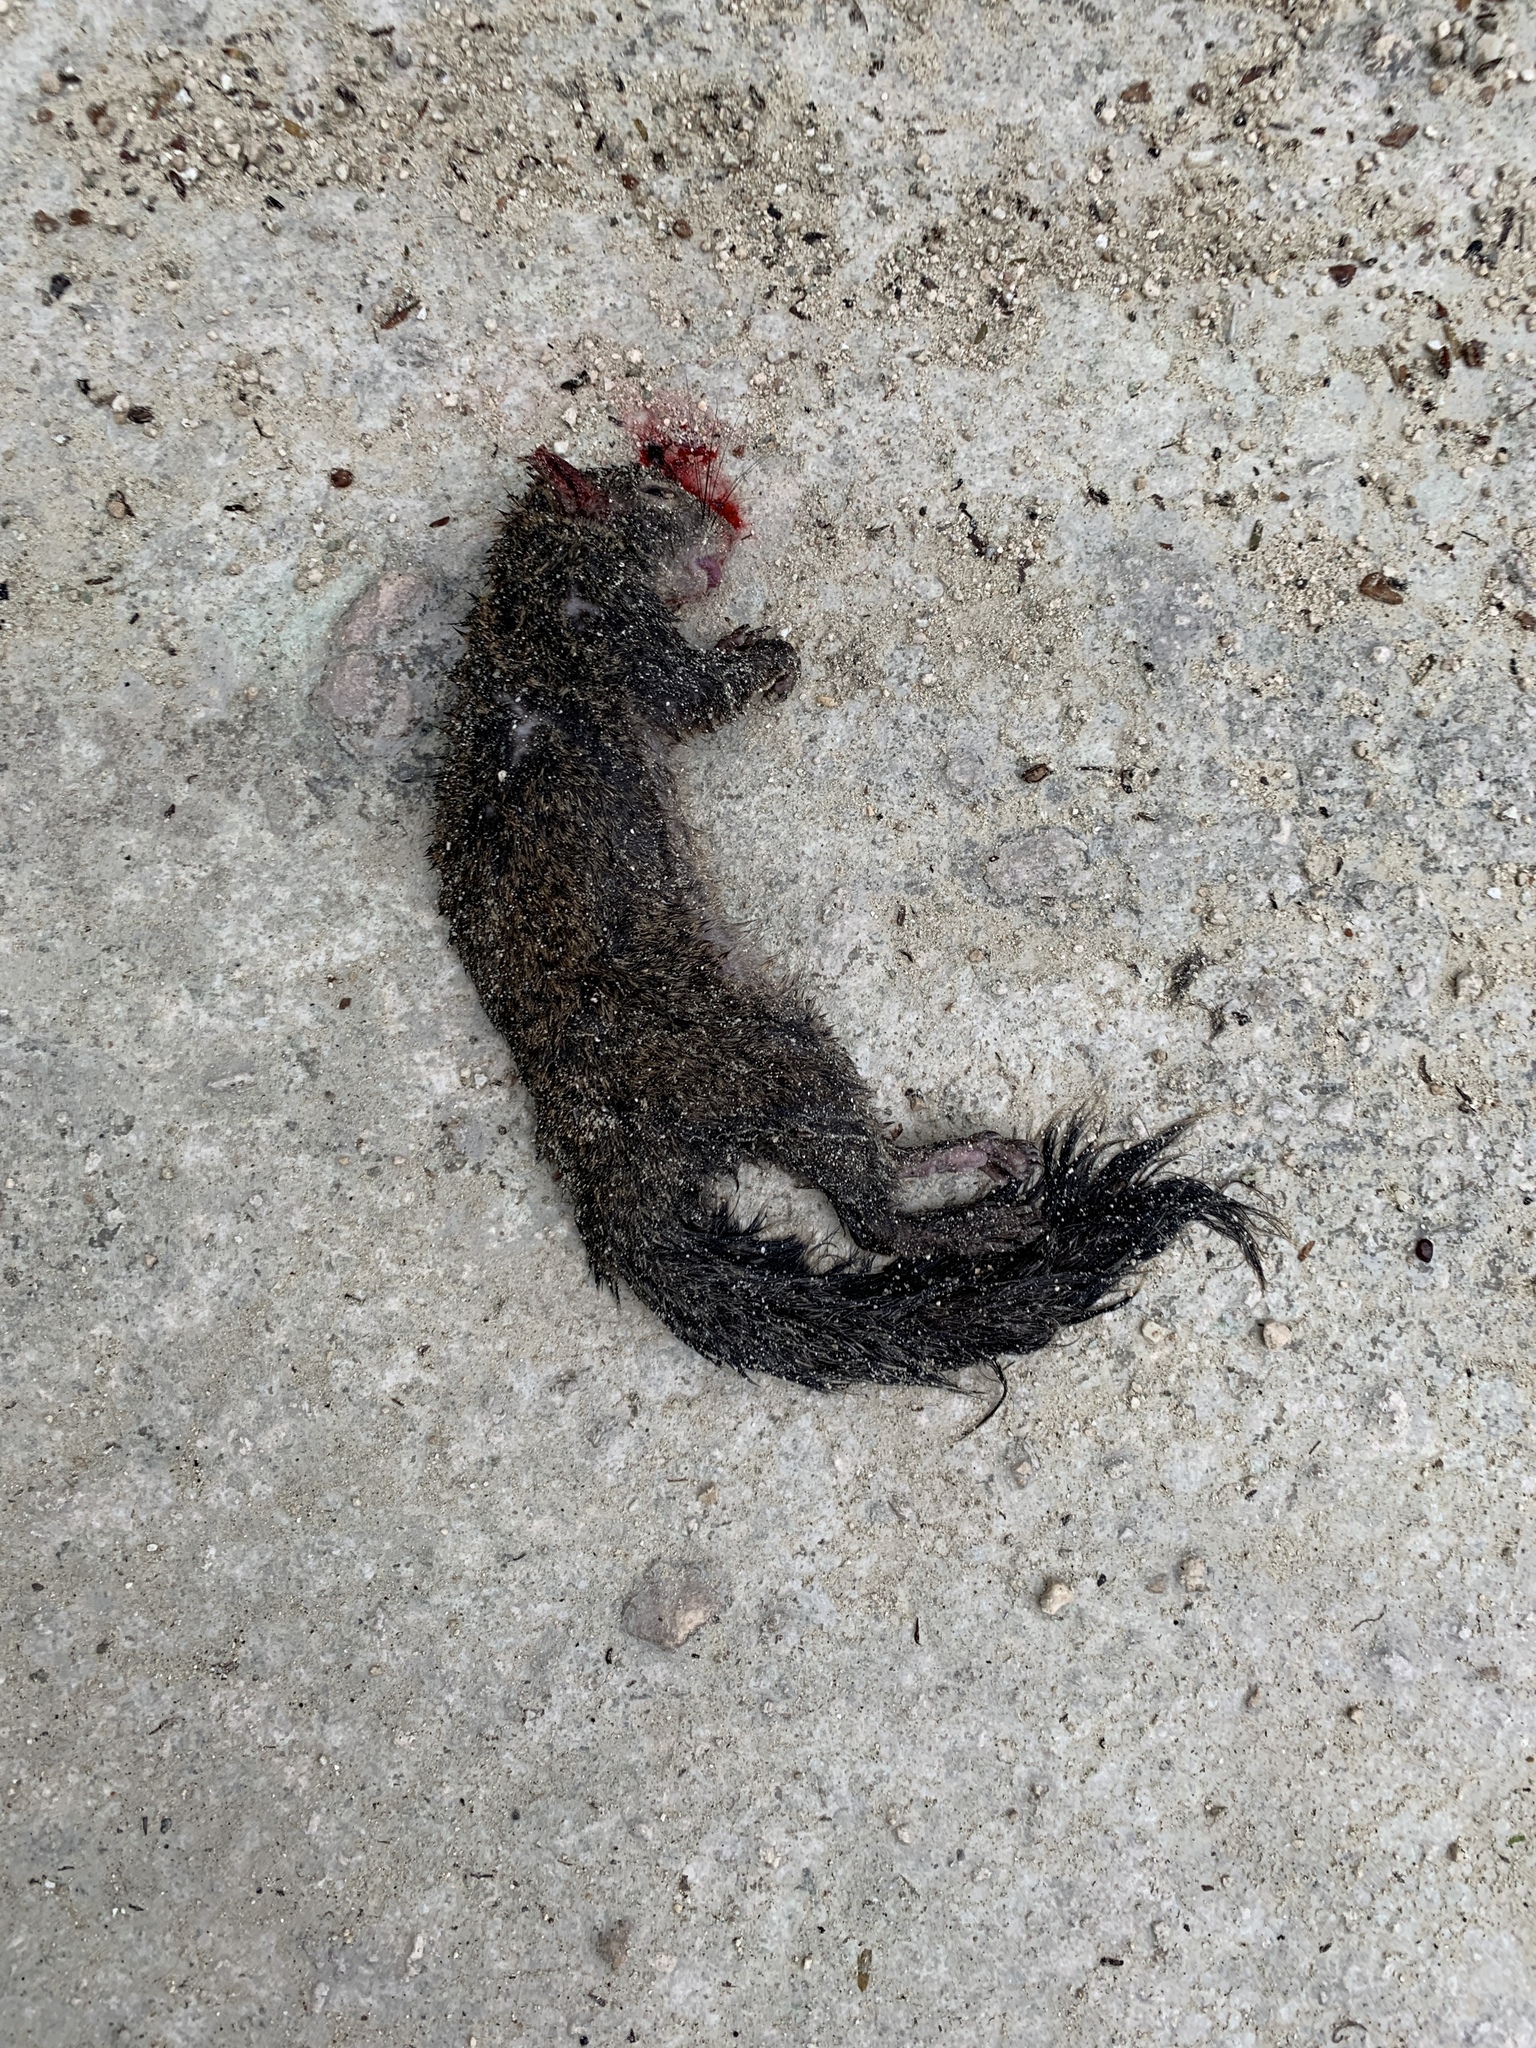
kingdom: Animalia
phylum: Chordata
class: Mammalia
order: Rodentia
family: Sciuridae
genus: Sciurus
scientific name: Sciurus yucatanensis
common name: Yucatan squirrel
